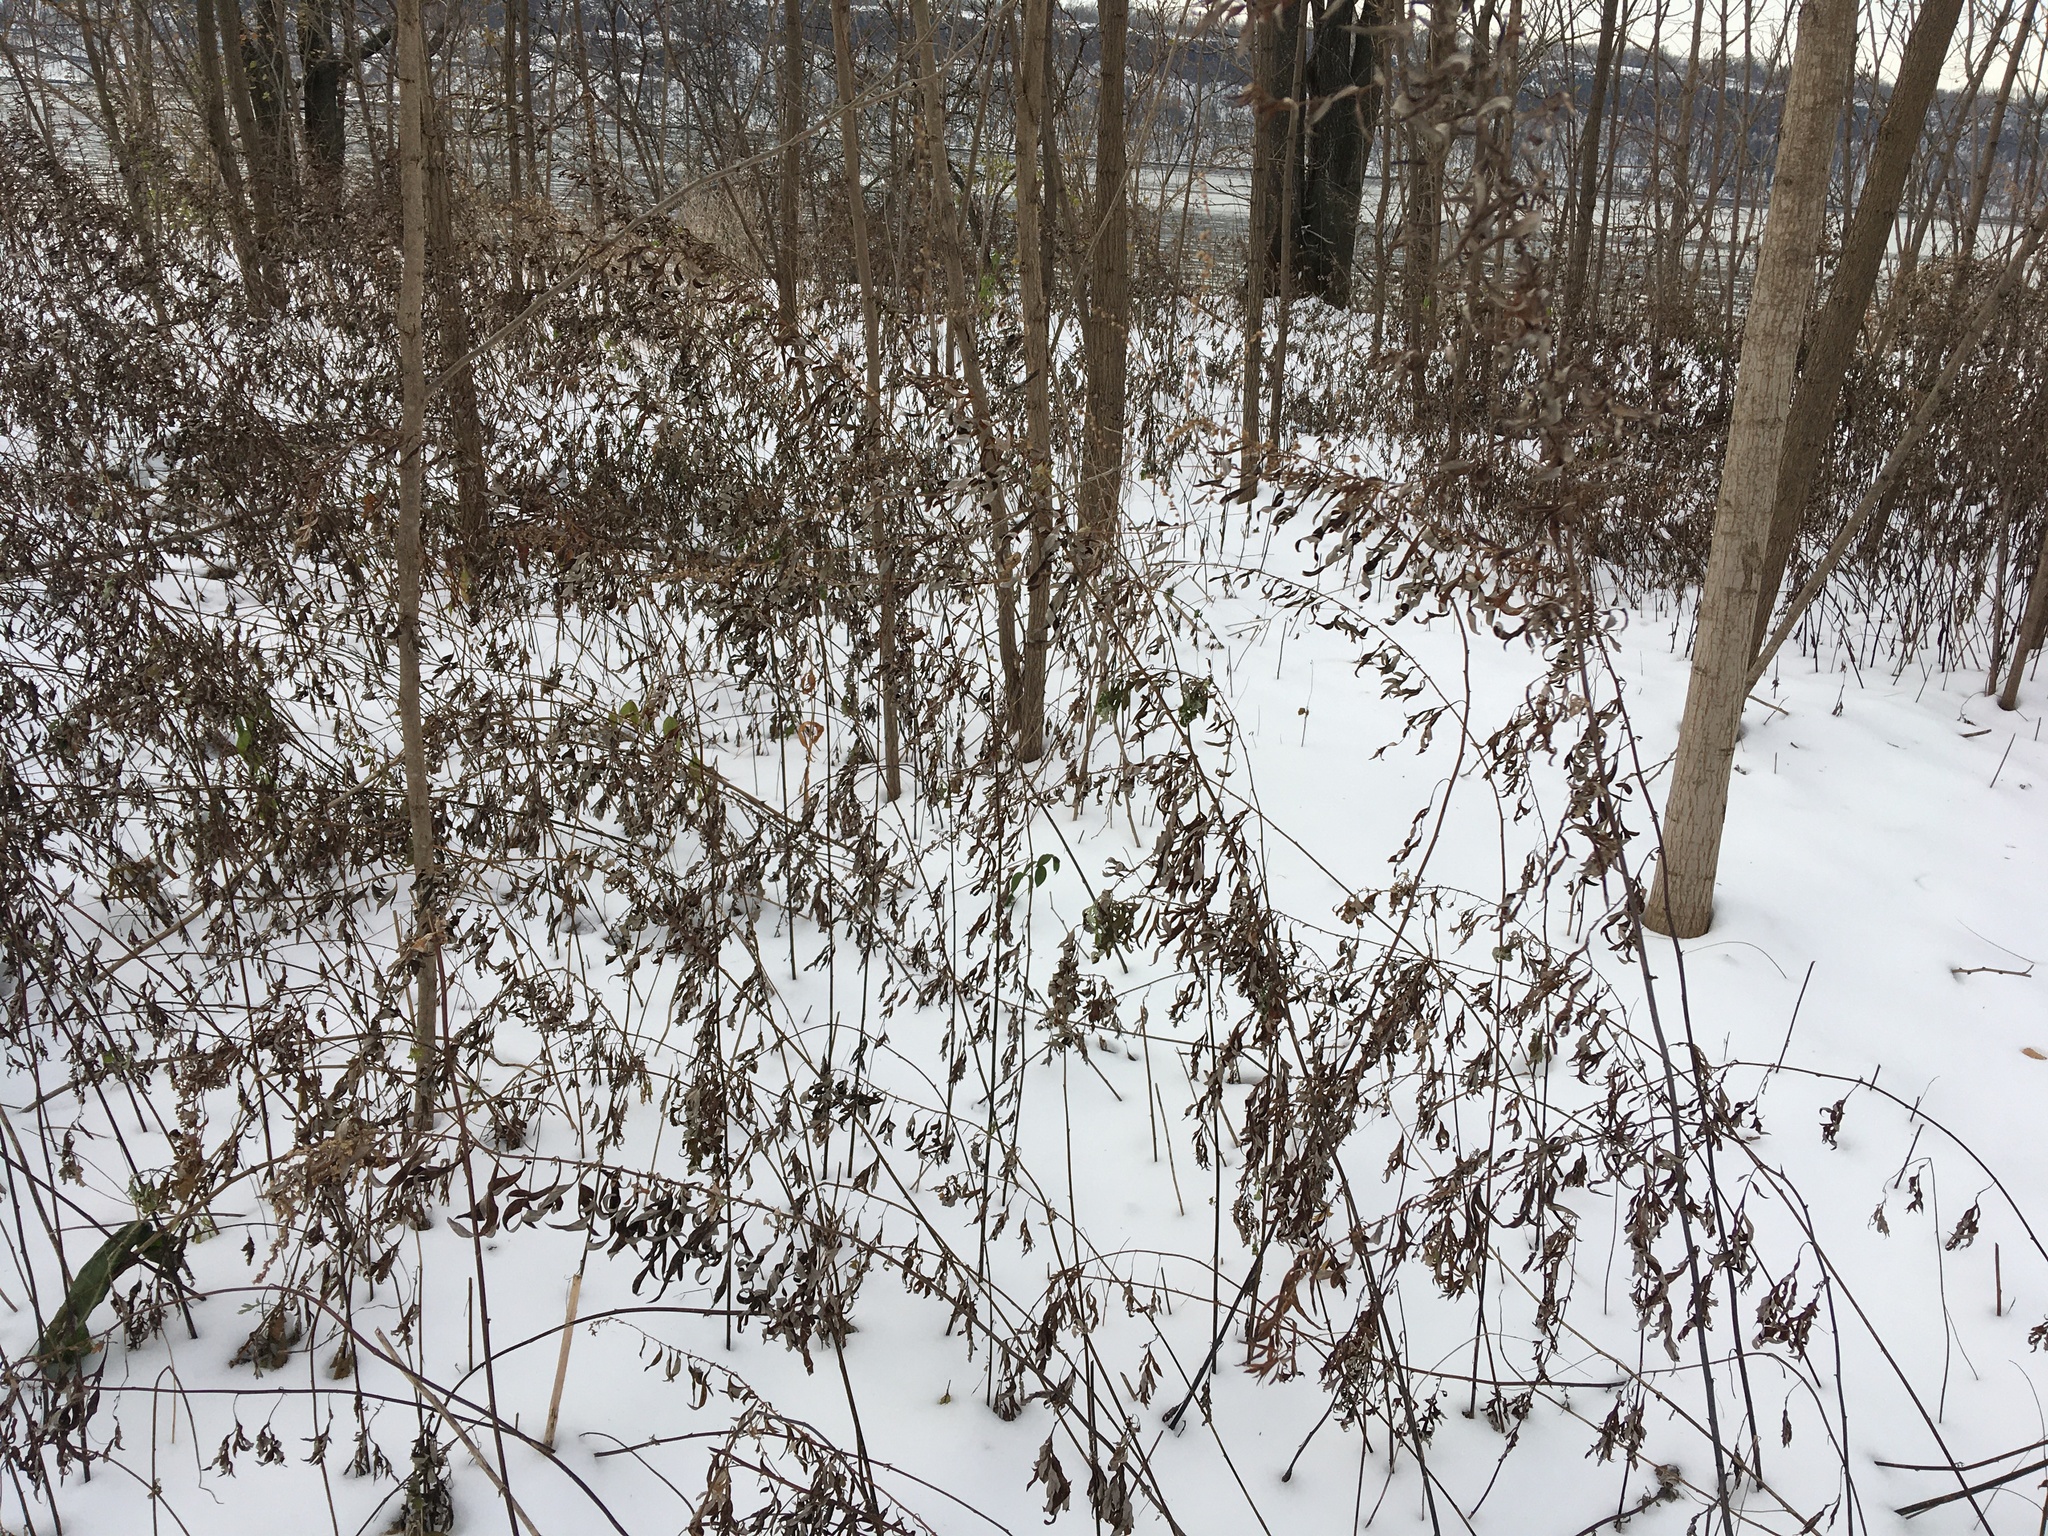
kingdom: Plantae
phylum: Tracheophyta
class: Magnoliopsida
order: Asterales
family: Asteraceae
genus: Artemisia
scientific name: Artemisia vulgaris
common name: Mugwort
